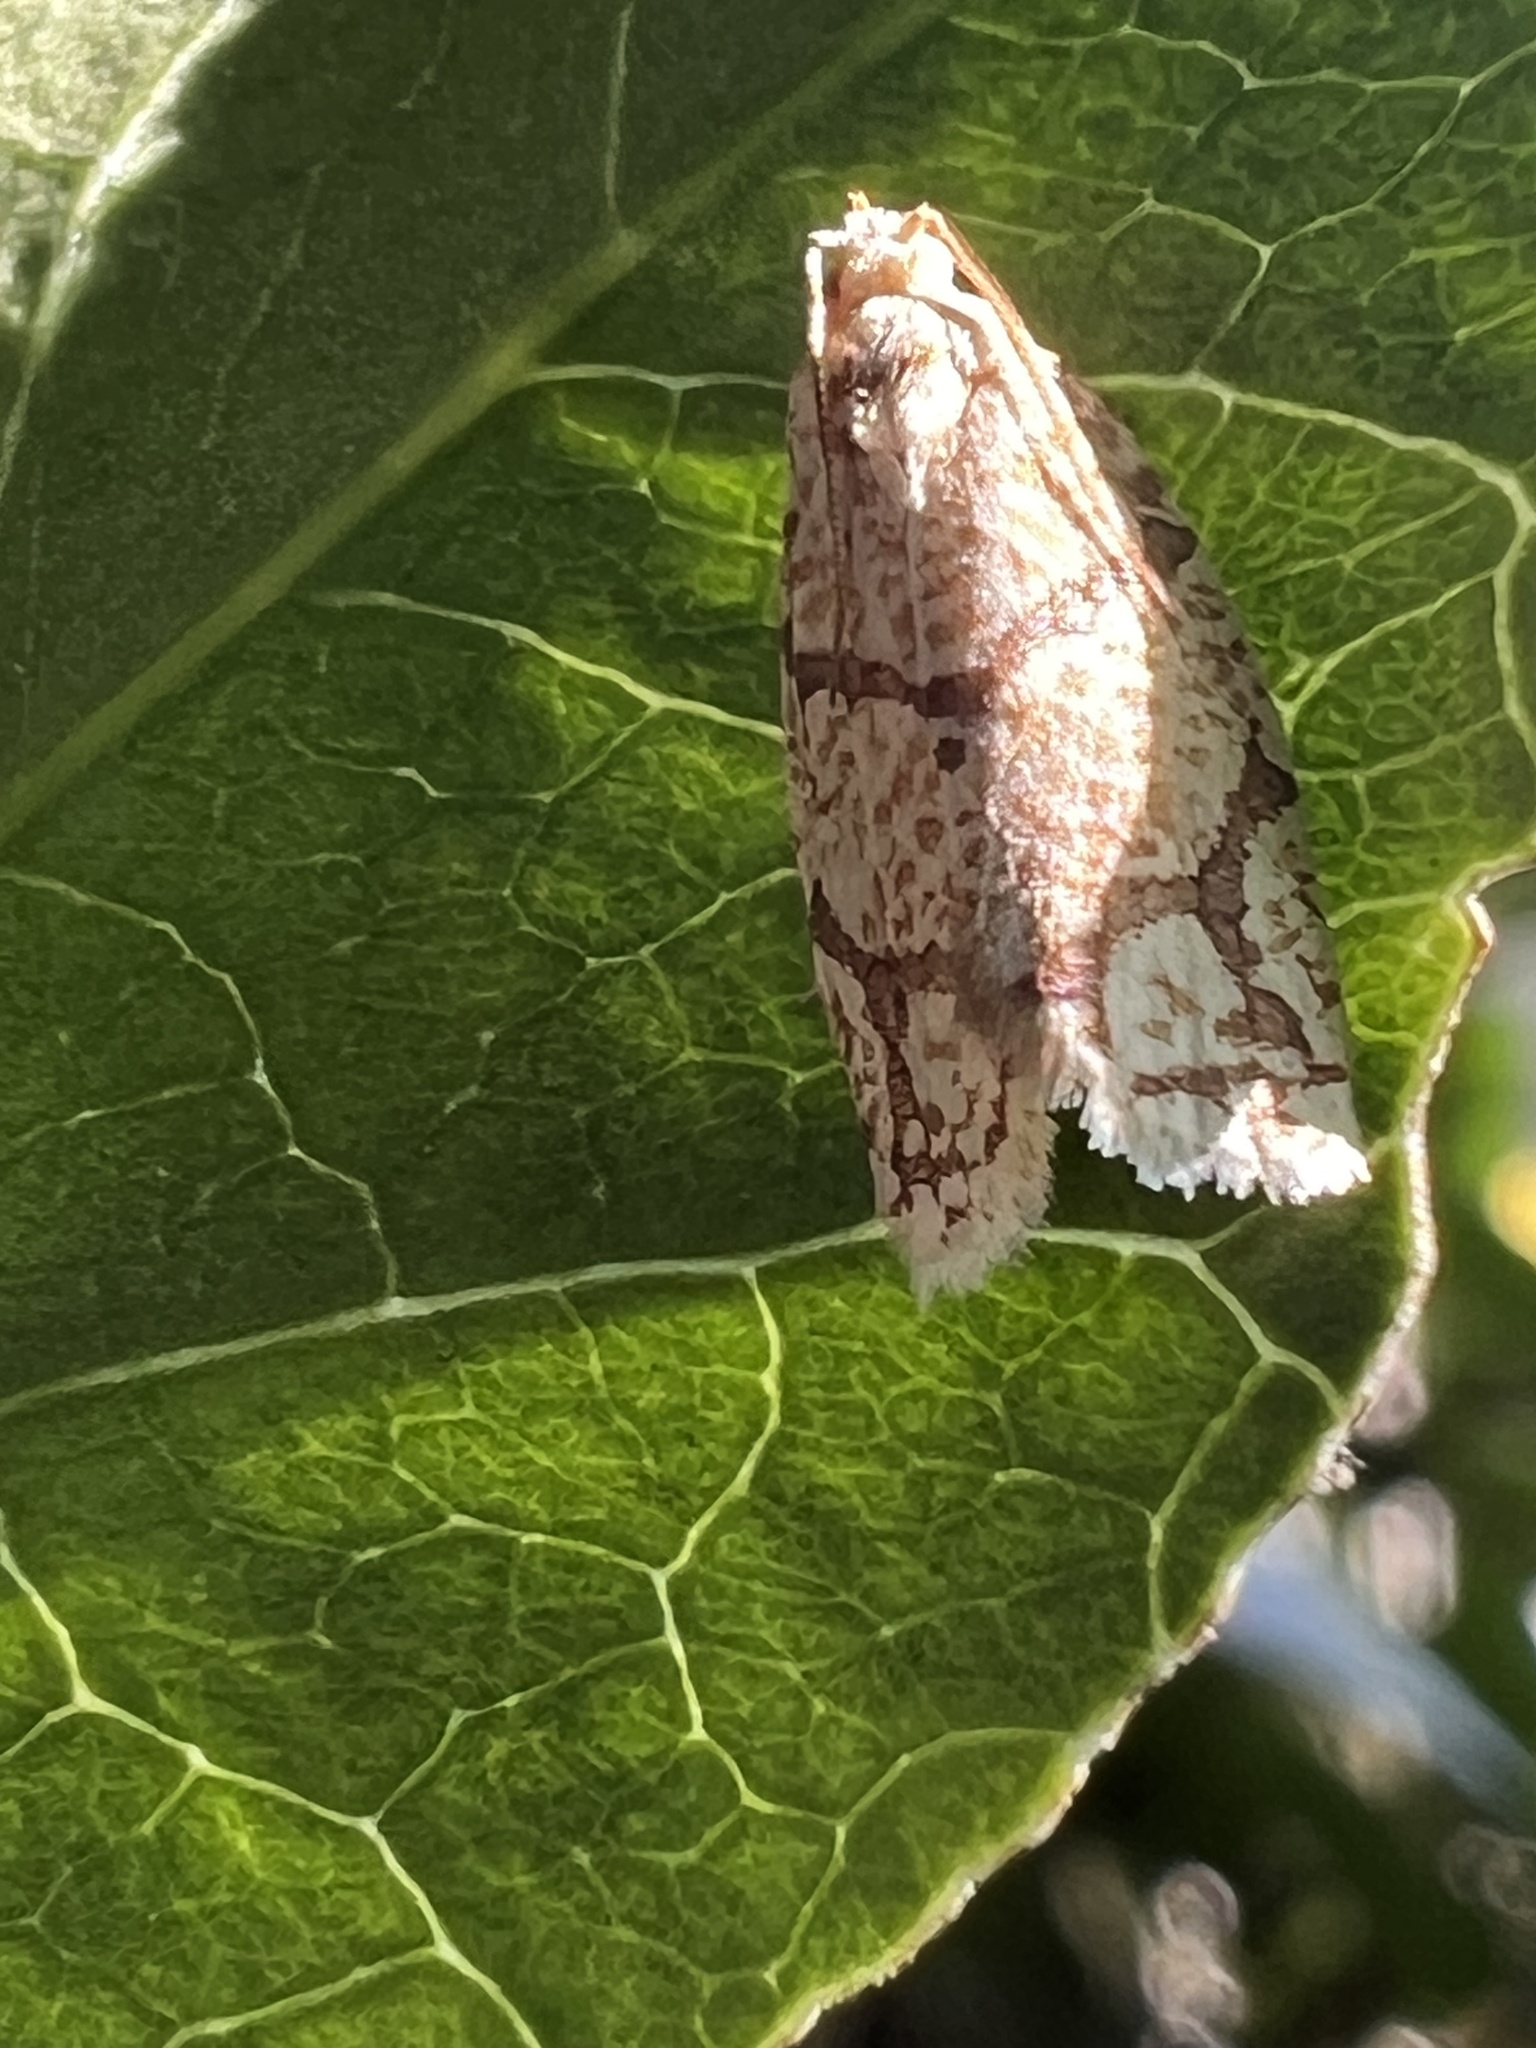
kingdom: Animalia
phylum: Arthropoda
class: Insecta
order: Lepidoptera
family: Tortricidae
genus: Argyrotaenia
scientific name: Argyrotaenia quercifoliana
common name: Yellow-winged oak leafroller moth
